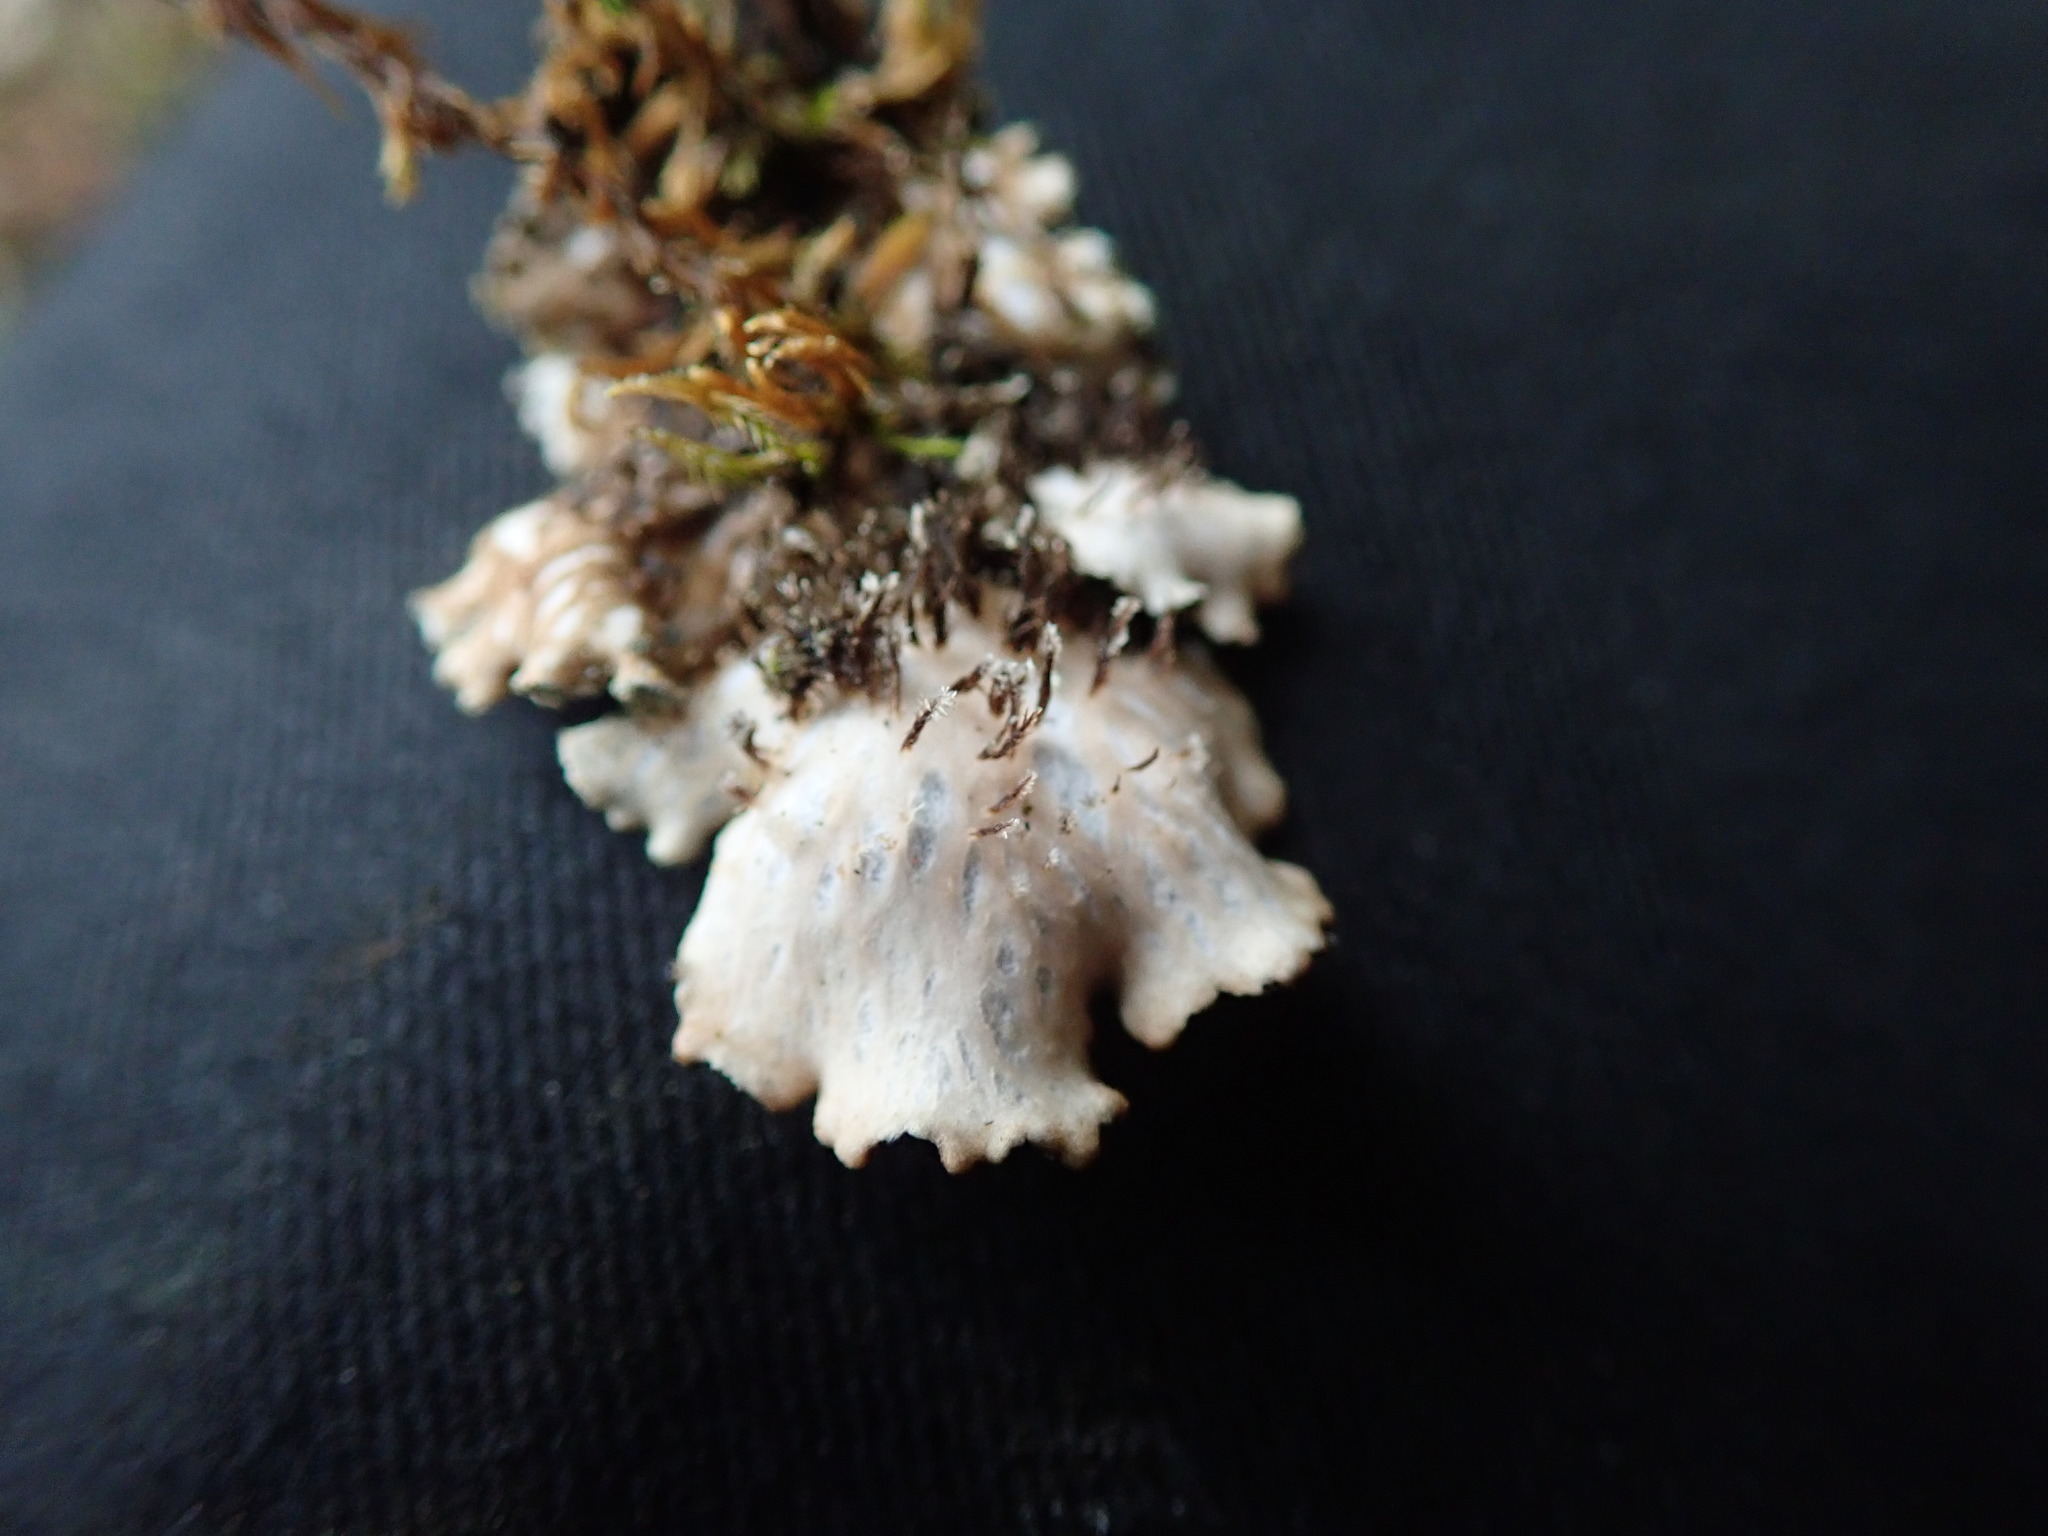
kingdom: Fungi
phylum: Ascomycota
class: Lecanoromycetes
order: Peltigerales
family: Peltigeraceae
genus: Peltigera
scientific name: Peltigera collina
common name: Gritty tree pelt lichen
